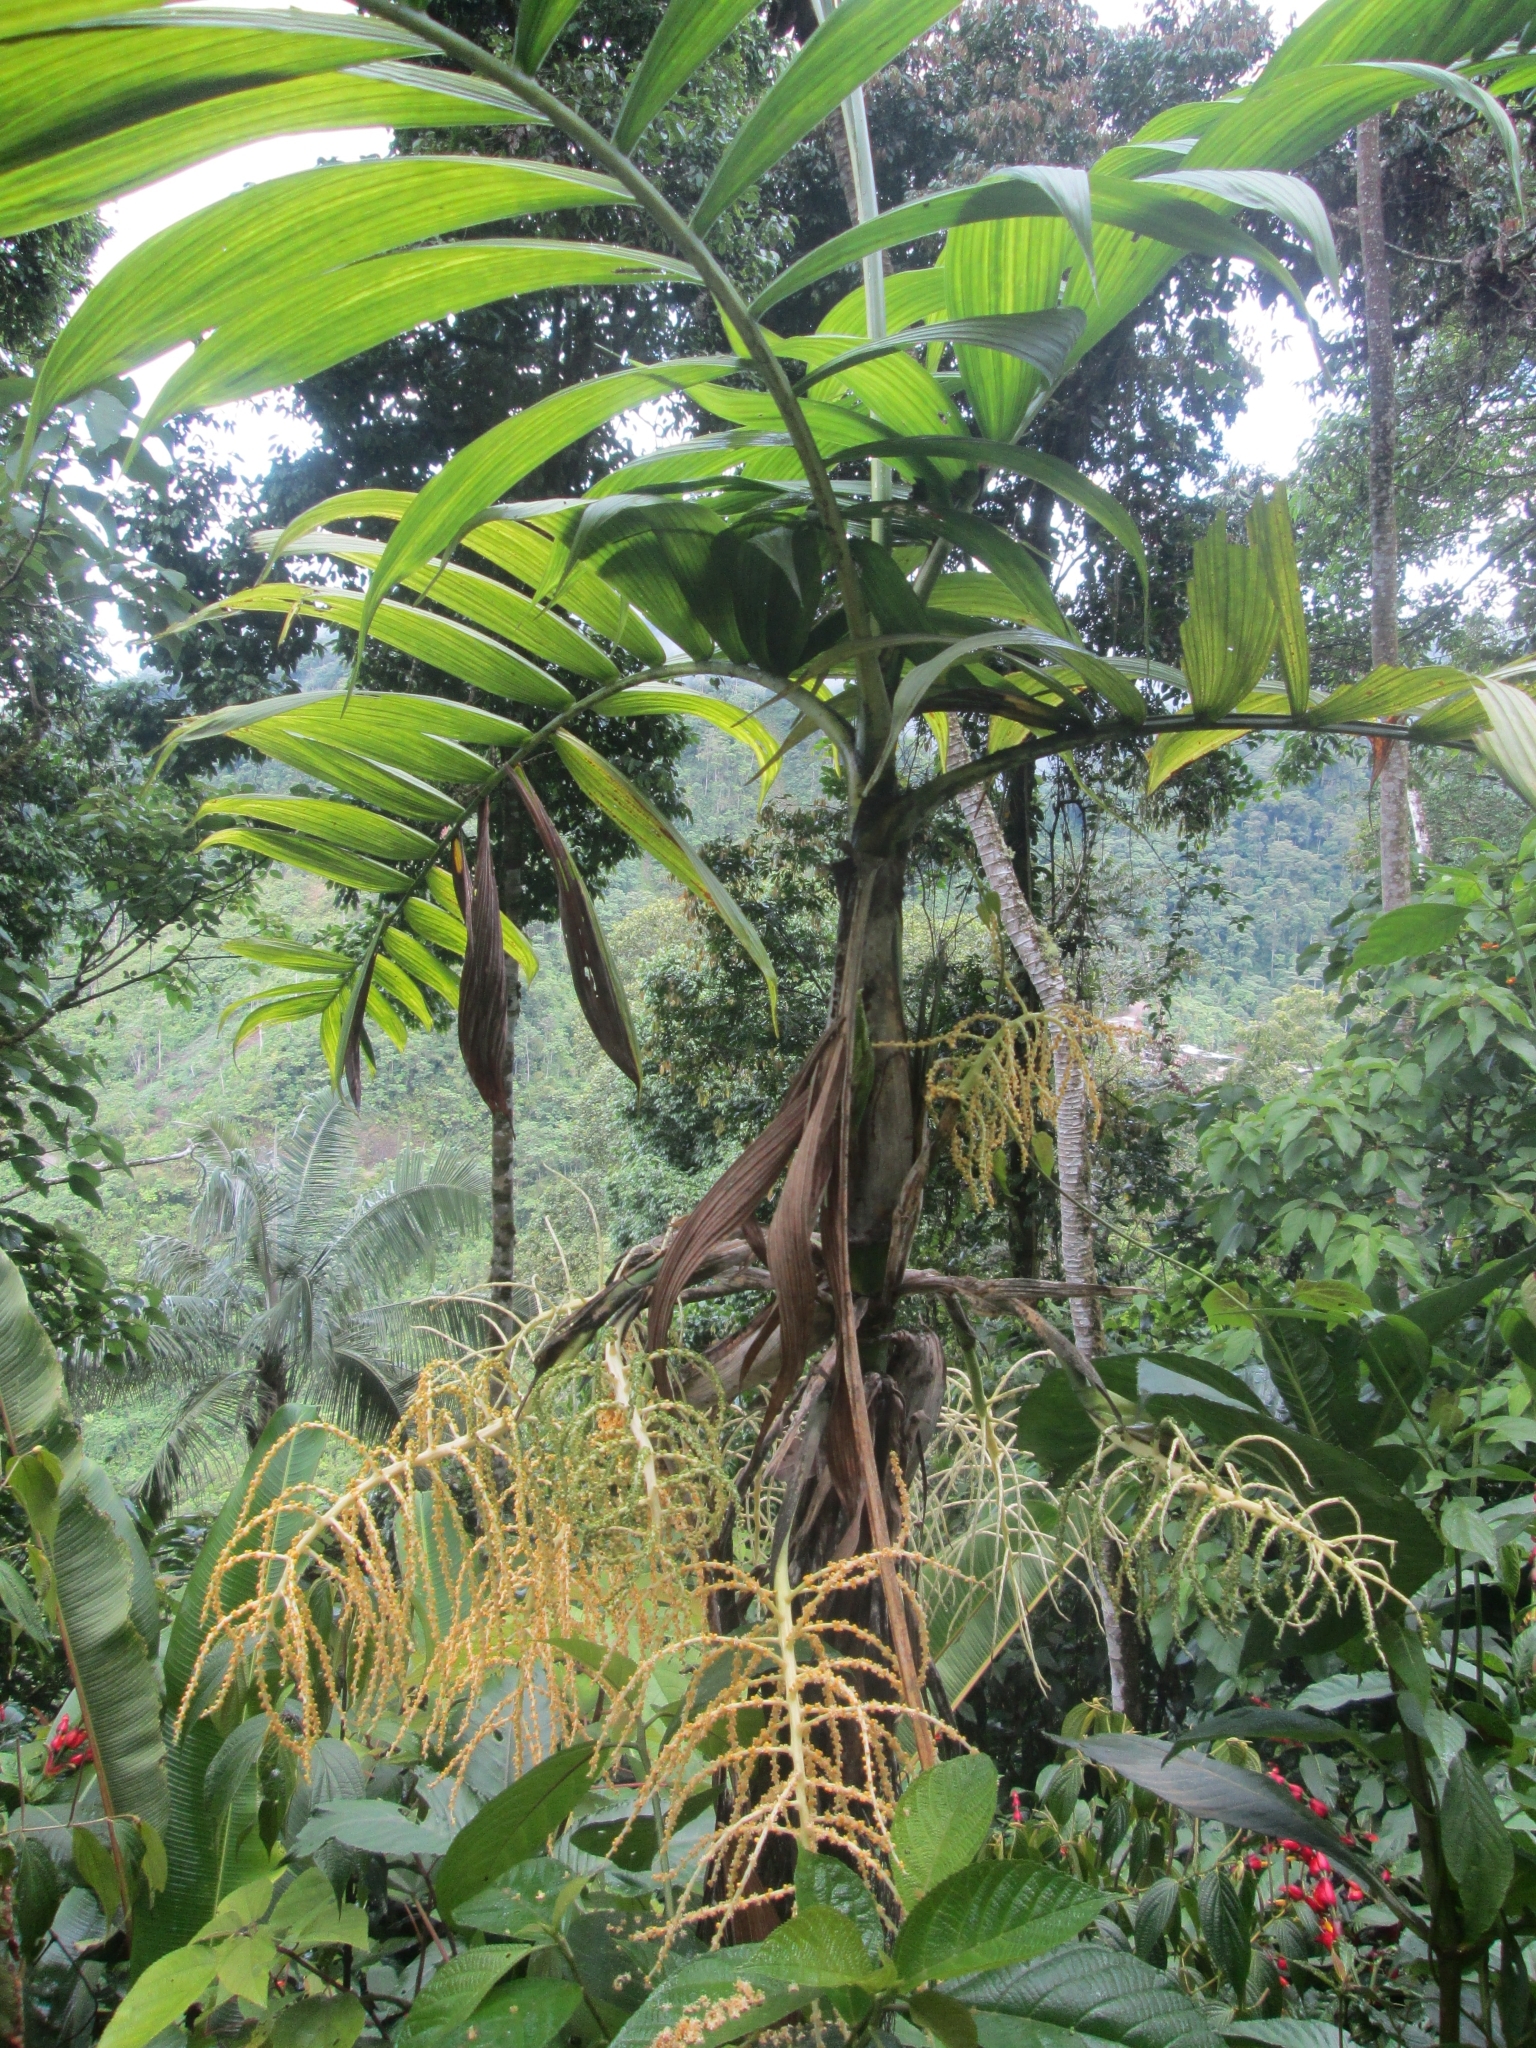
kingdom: Plantae
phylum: Tracheophyta
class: Liliopsida
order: Arecales
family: Arecaceae
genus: Chamaedorea
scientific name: Chamaedorea linearis
